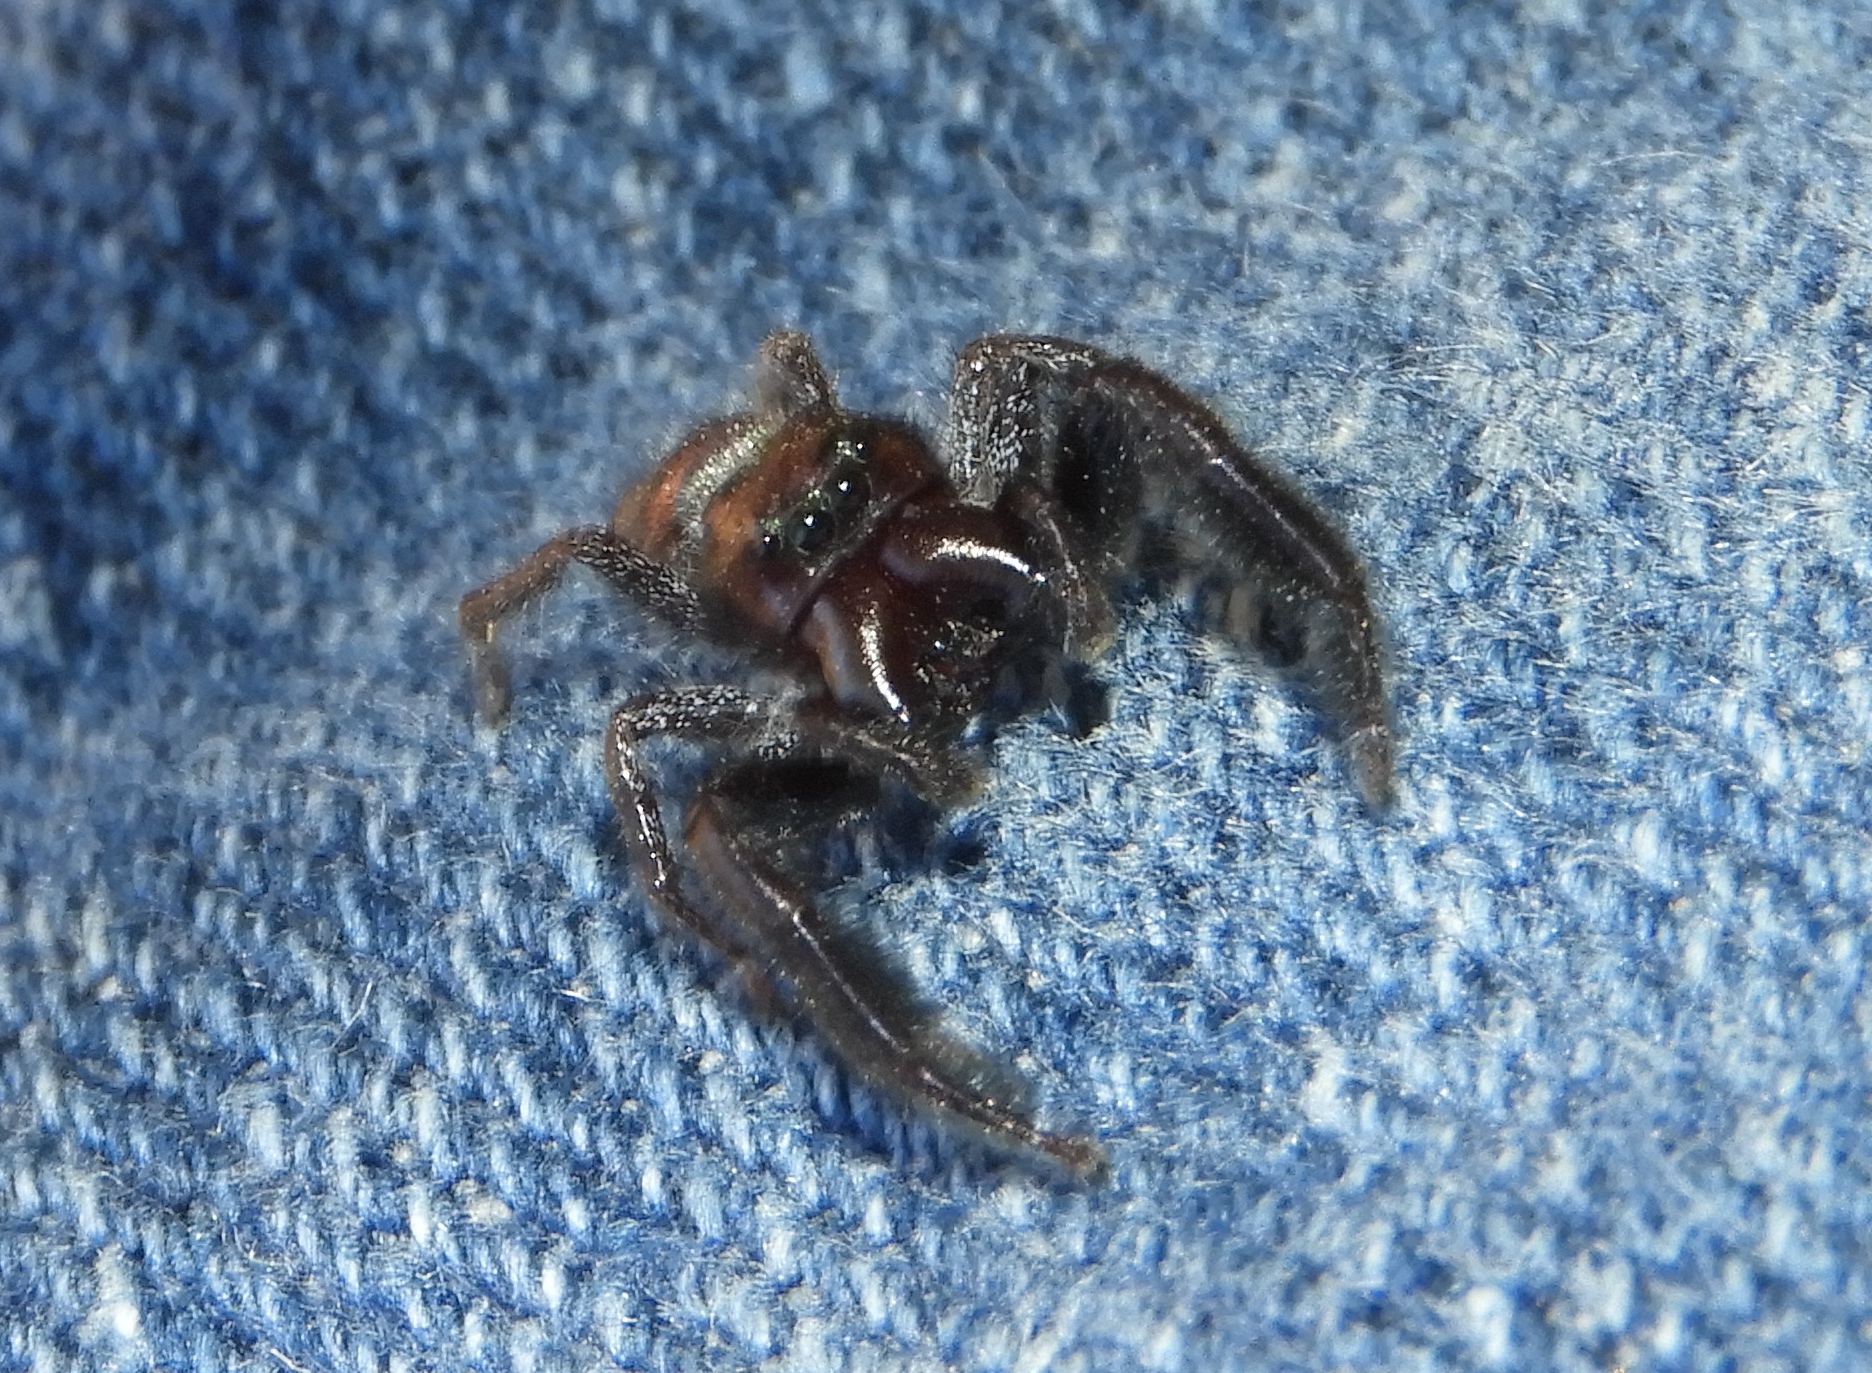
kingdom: Animalia
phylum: Arthropoda
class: Arachnida
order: Araneae
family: Salticidae
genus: Paraphidippus
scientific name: Paraphidippus
